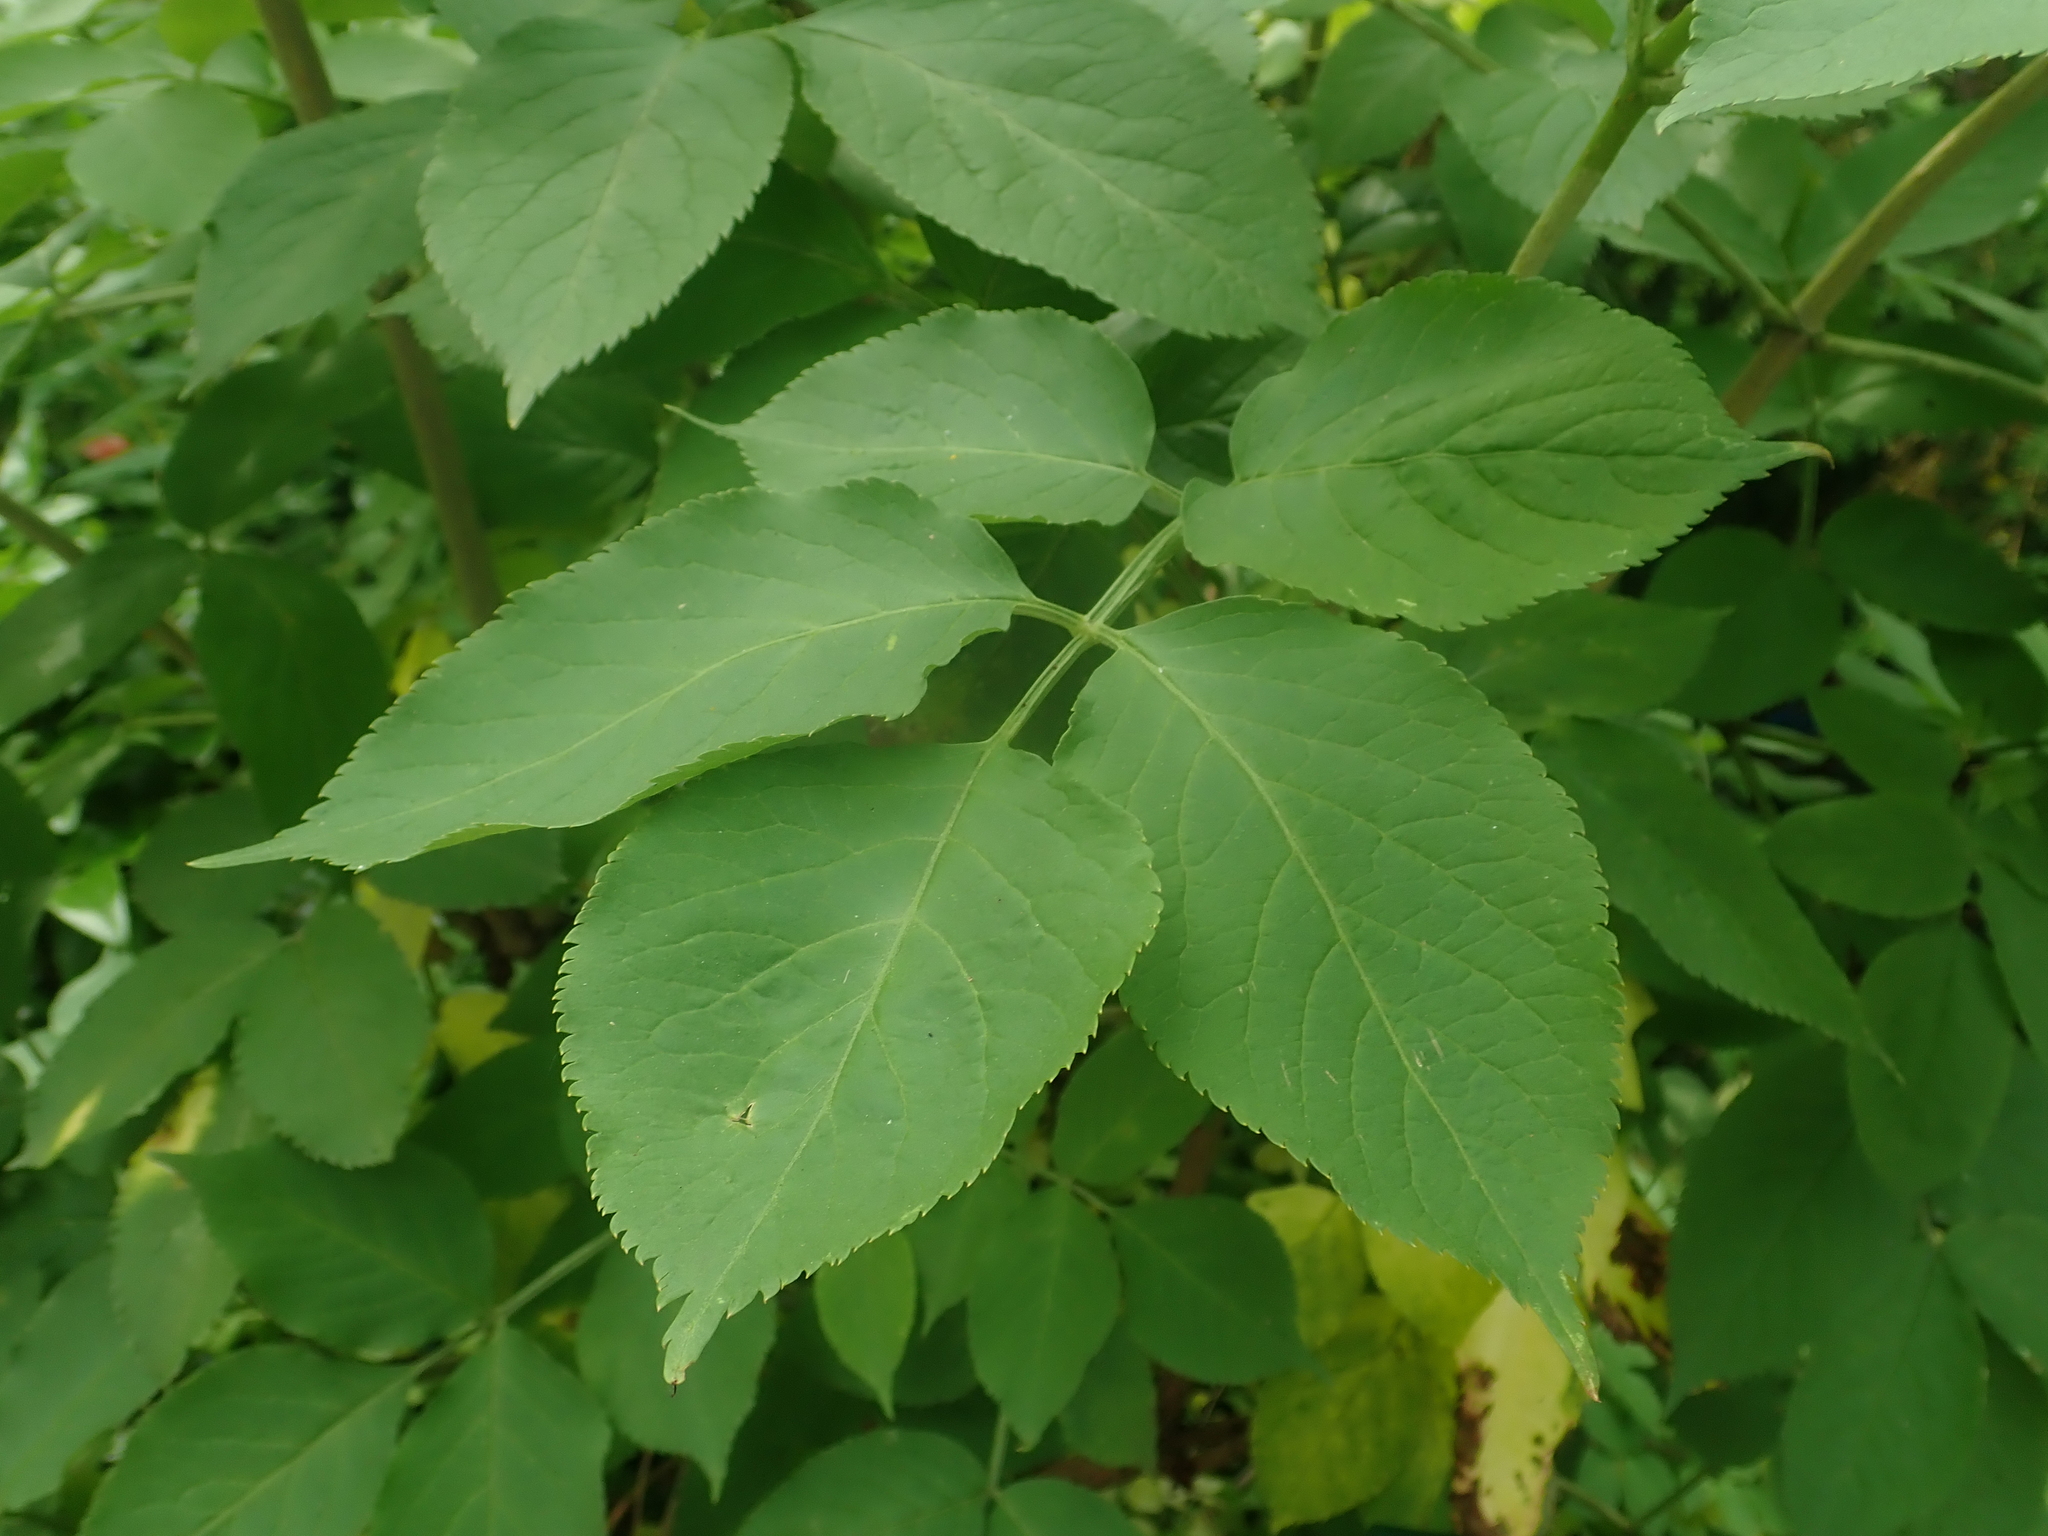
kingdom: Plantae
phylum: Tracheophyta
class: Magnoliopsida
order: Dipsacales
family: Viburnaceae
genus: Sambucus
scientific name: Sambucus nigra
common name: Elder
